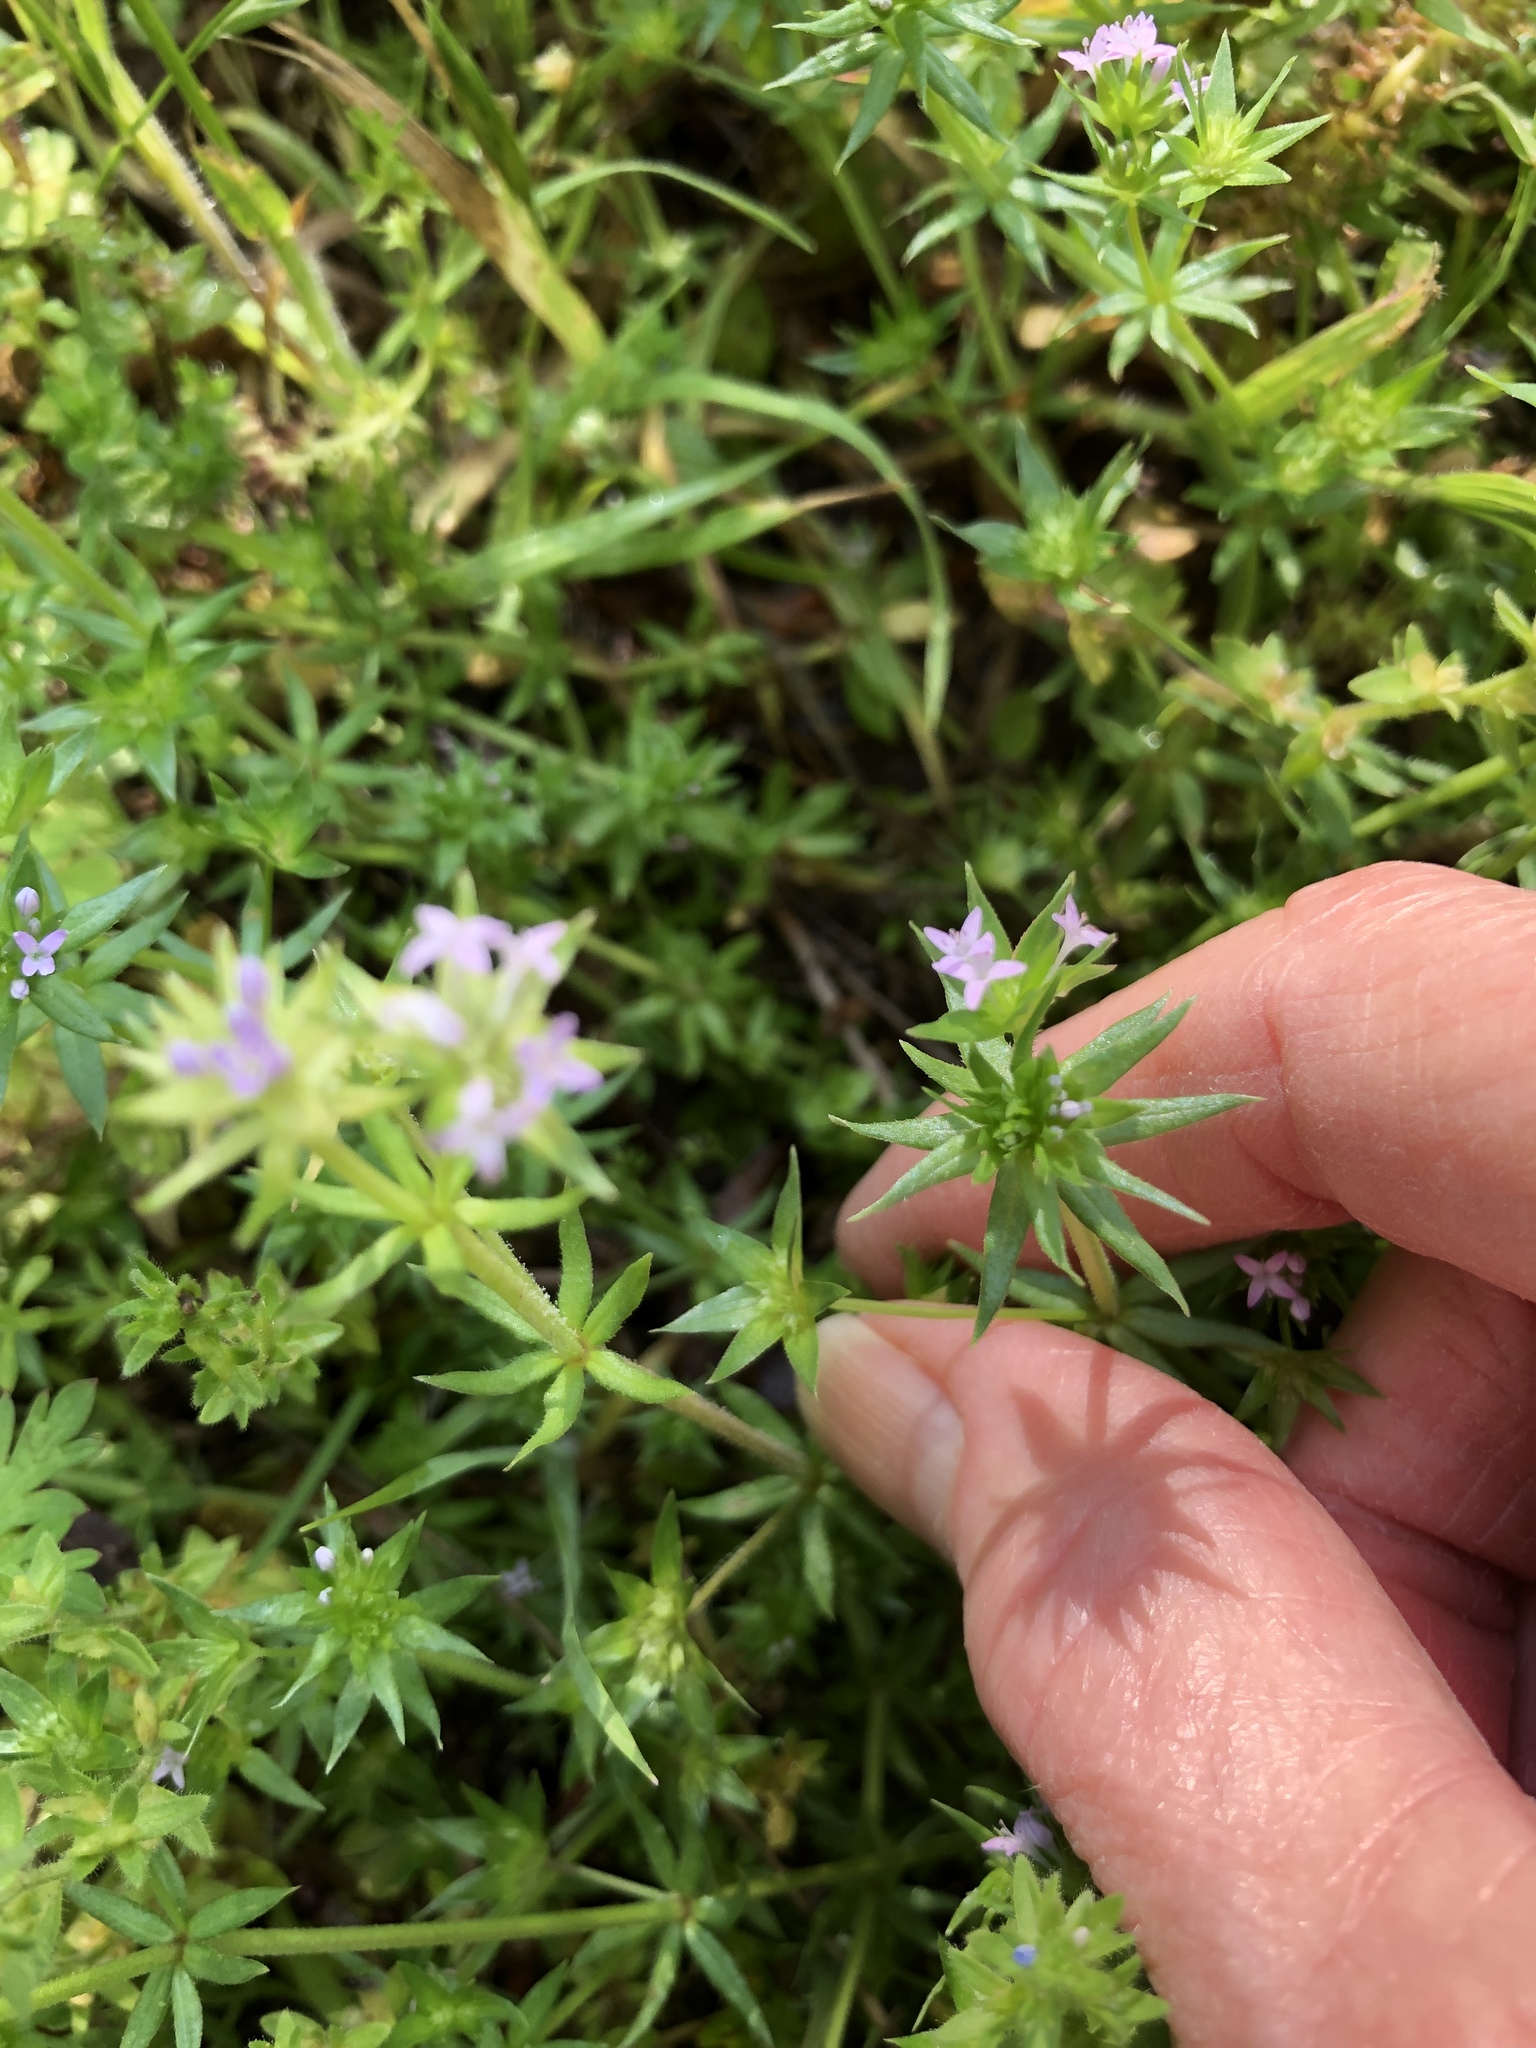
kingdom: Plantae
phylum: Tracheophyta
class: Magnoliopsida
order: Gentianales
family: Rubiaceae
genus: Sherardia
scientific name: Sherardia arvensis
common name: Field madder
